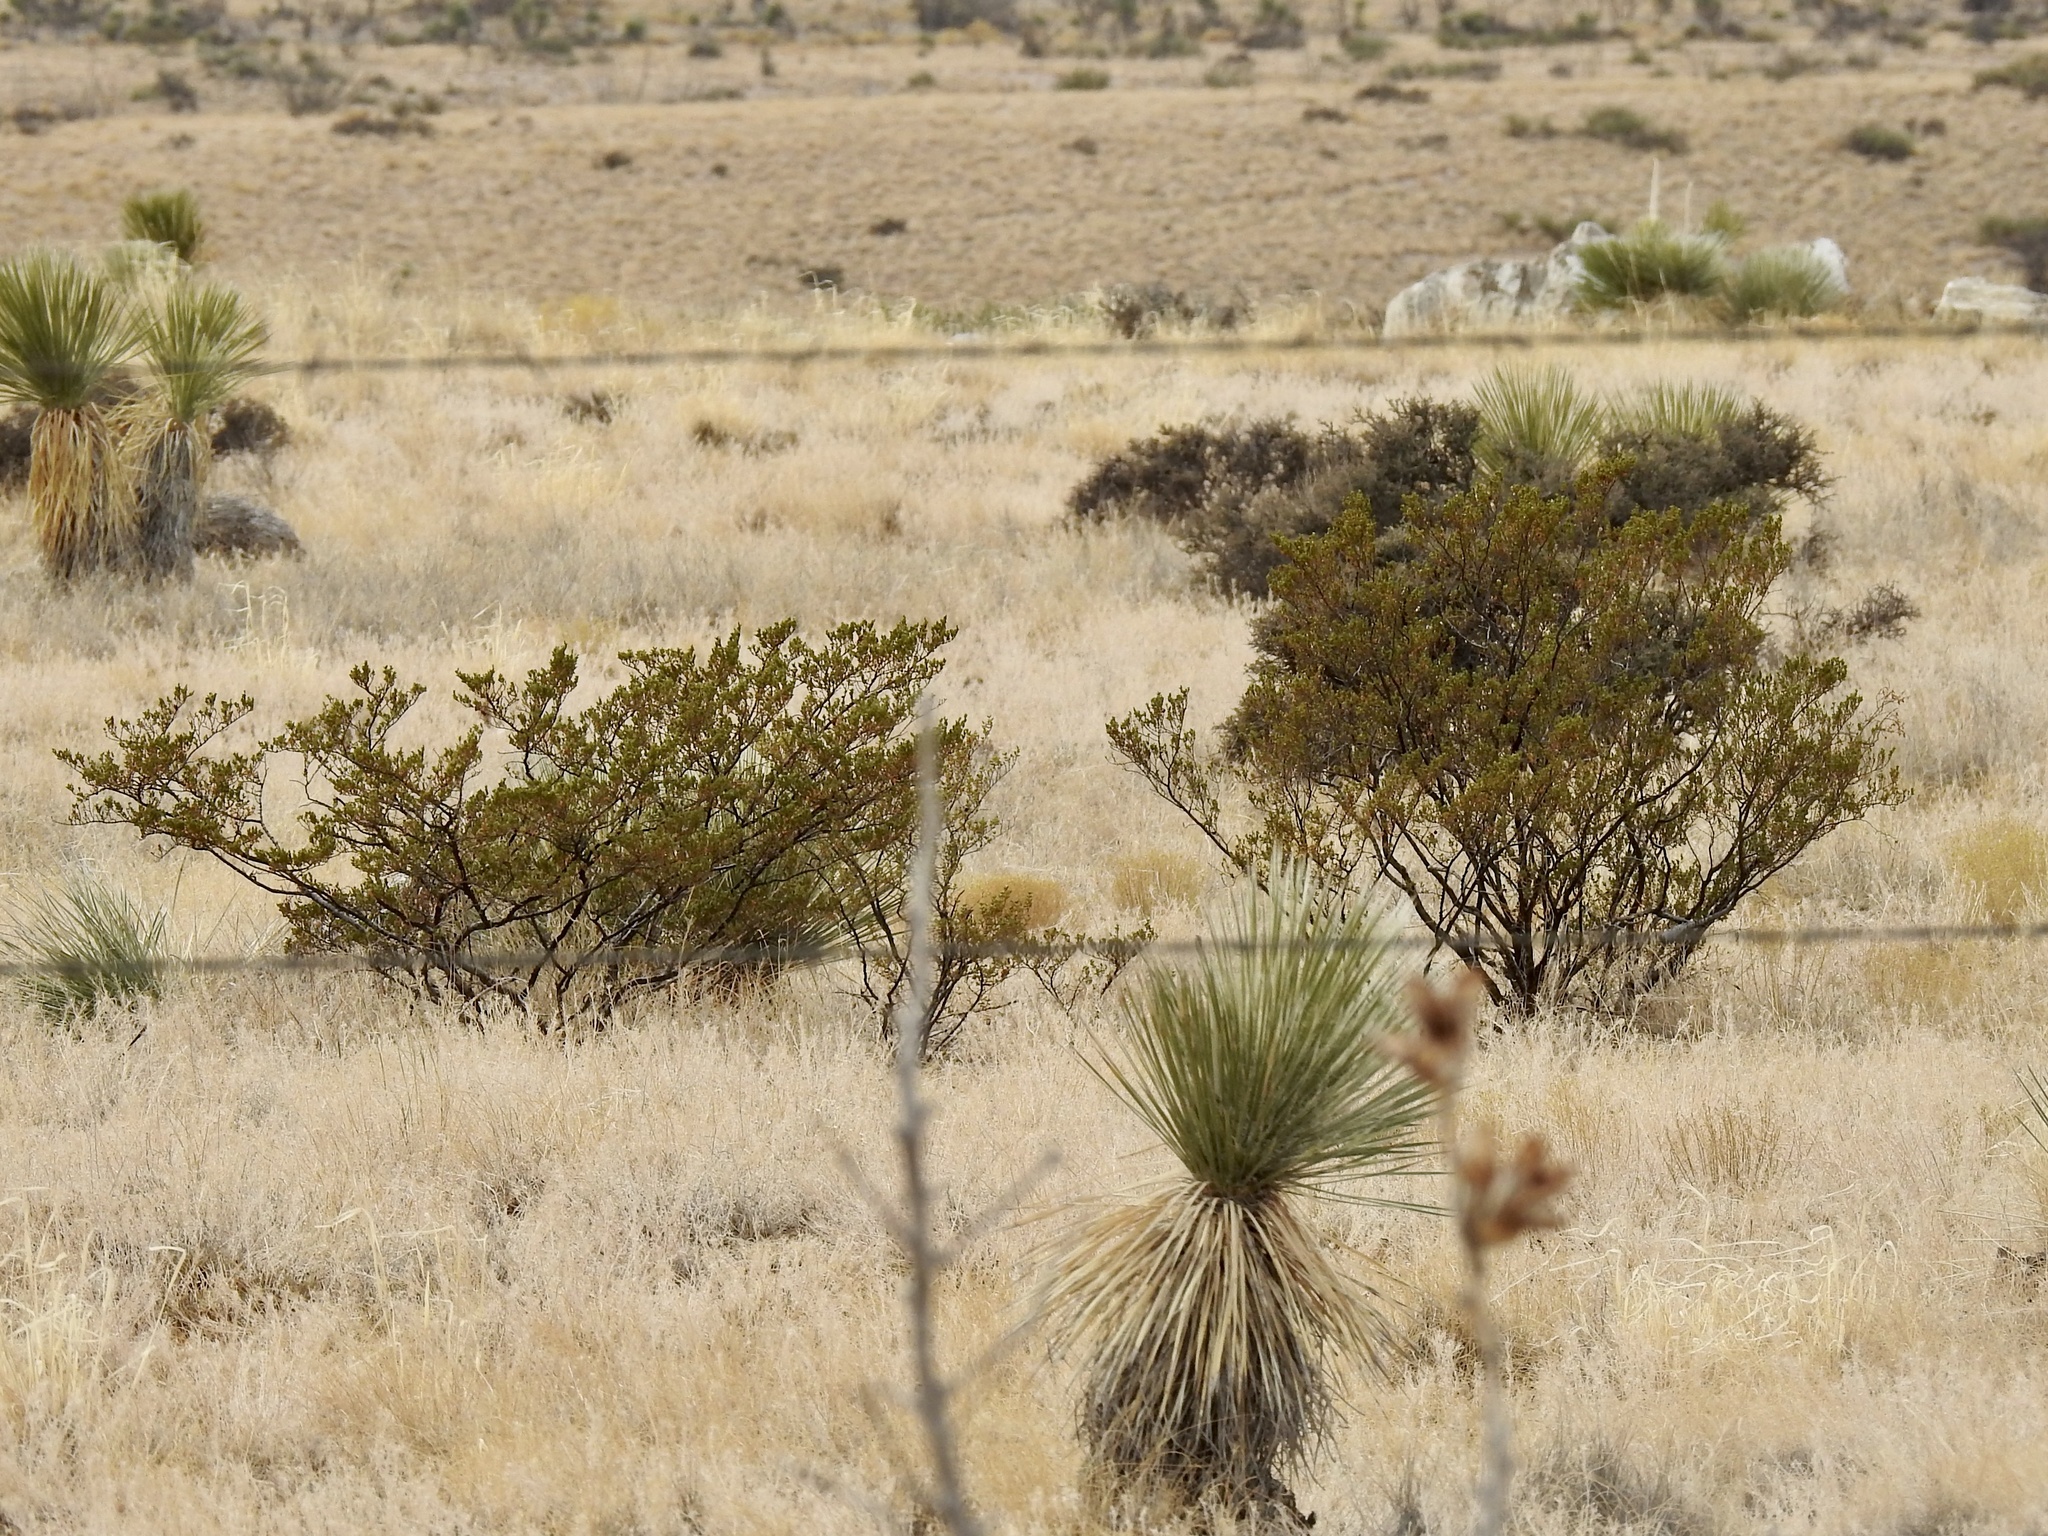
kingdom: Plantae
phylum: Tracheophyta
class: Magnoliopsida
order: Zygophyllales
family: Zygophyllaceae
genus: Larrea
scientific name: Larrea tridentata
